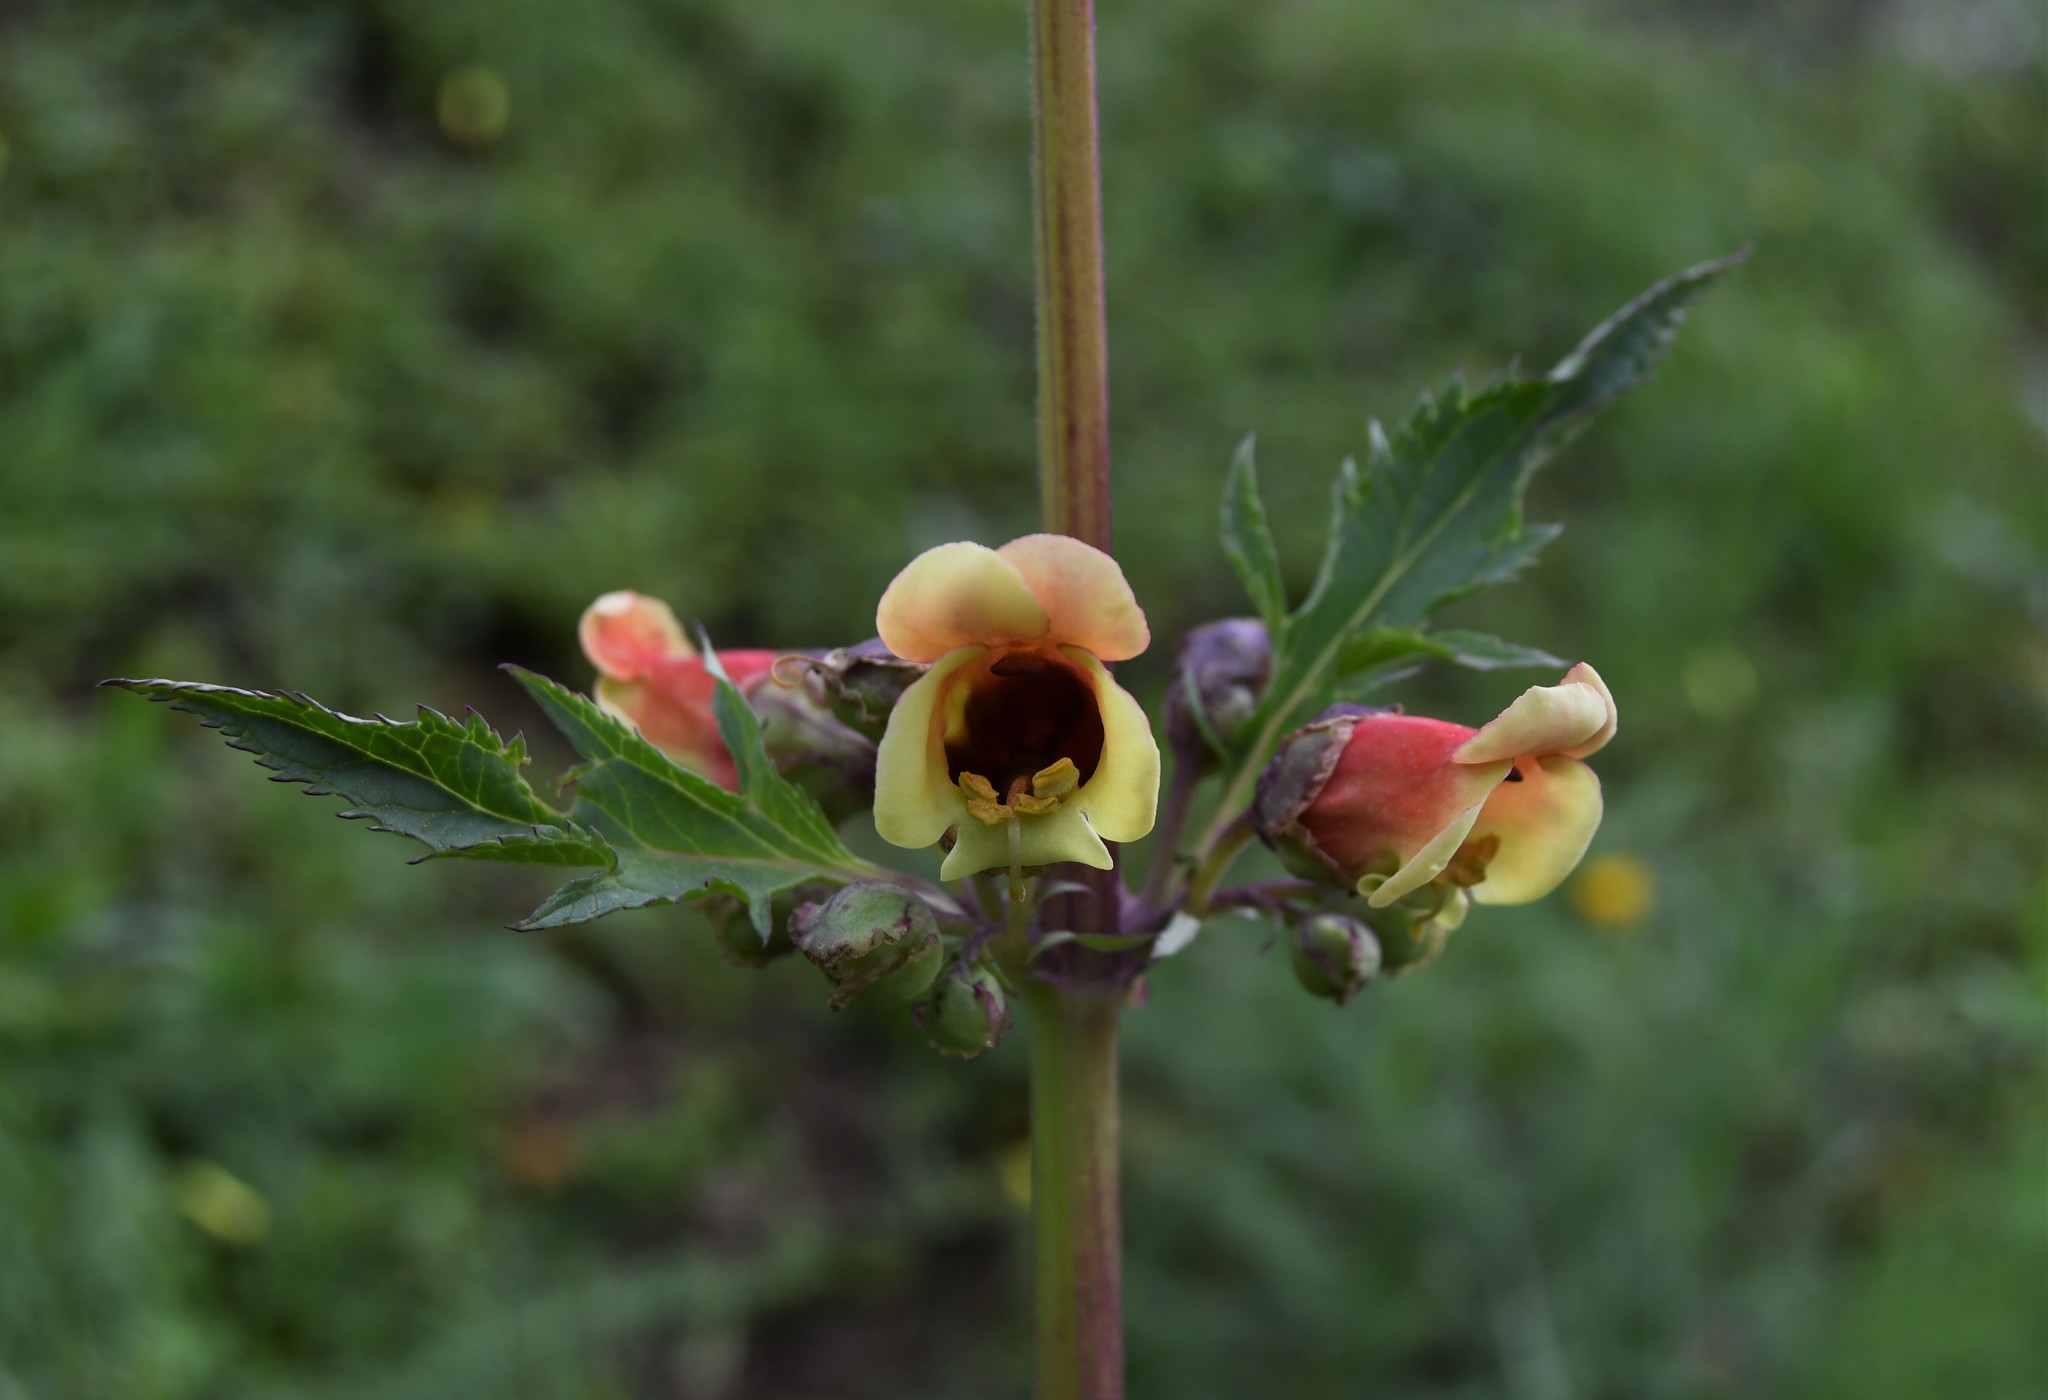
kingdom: Plantae
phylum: Tracheophyta
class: Magnoliopsida
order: Lamiales
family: Scrophulariaceae
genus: Scrophularia
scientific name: Scrophularia sambucifolia
